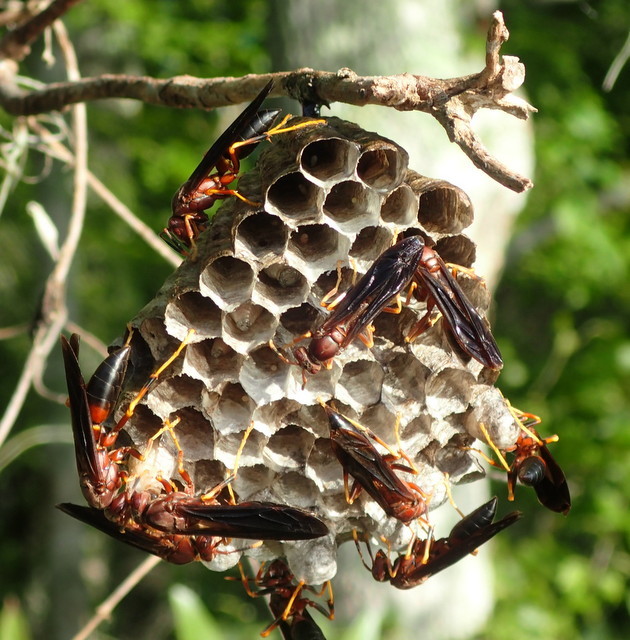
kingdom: Animalia
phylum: Arthropoda
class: Insecta
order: Hymenoptera
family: Eumenidae
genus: Polistes
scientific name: Polistes annularis
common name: Ringed paper wasp
